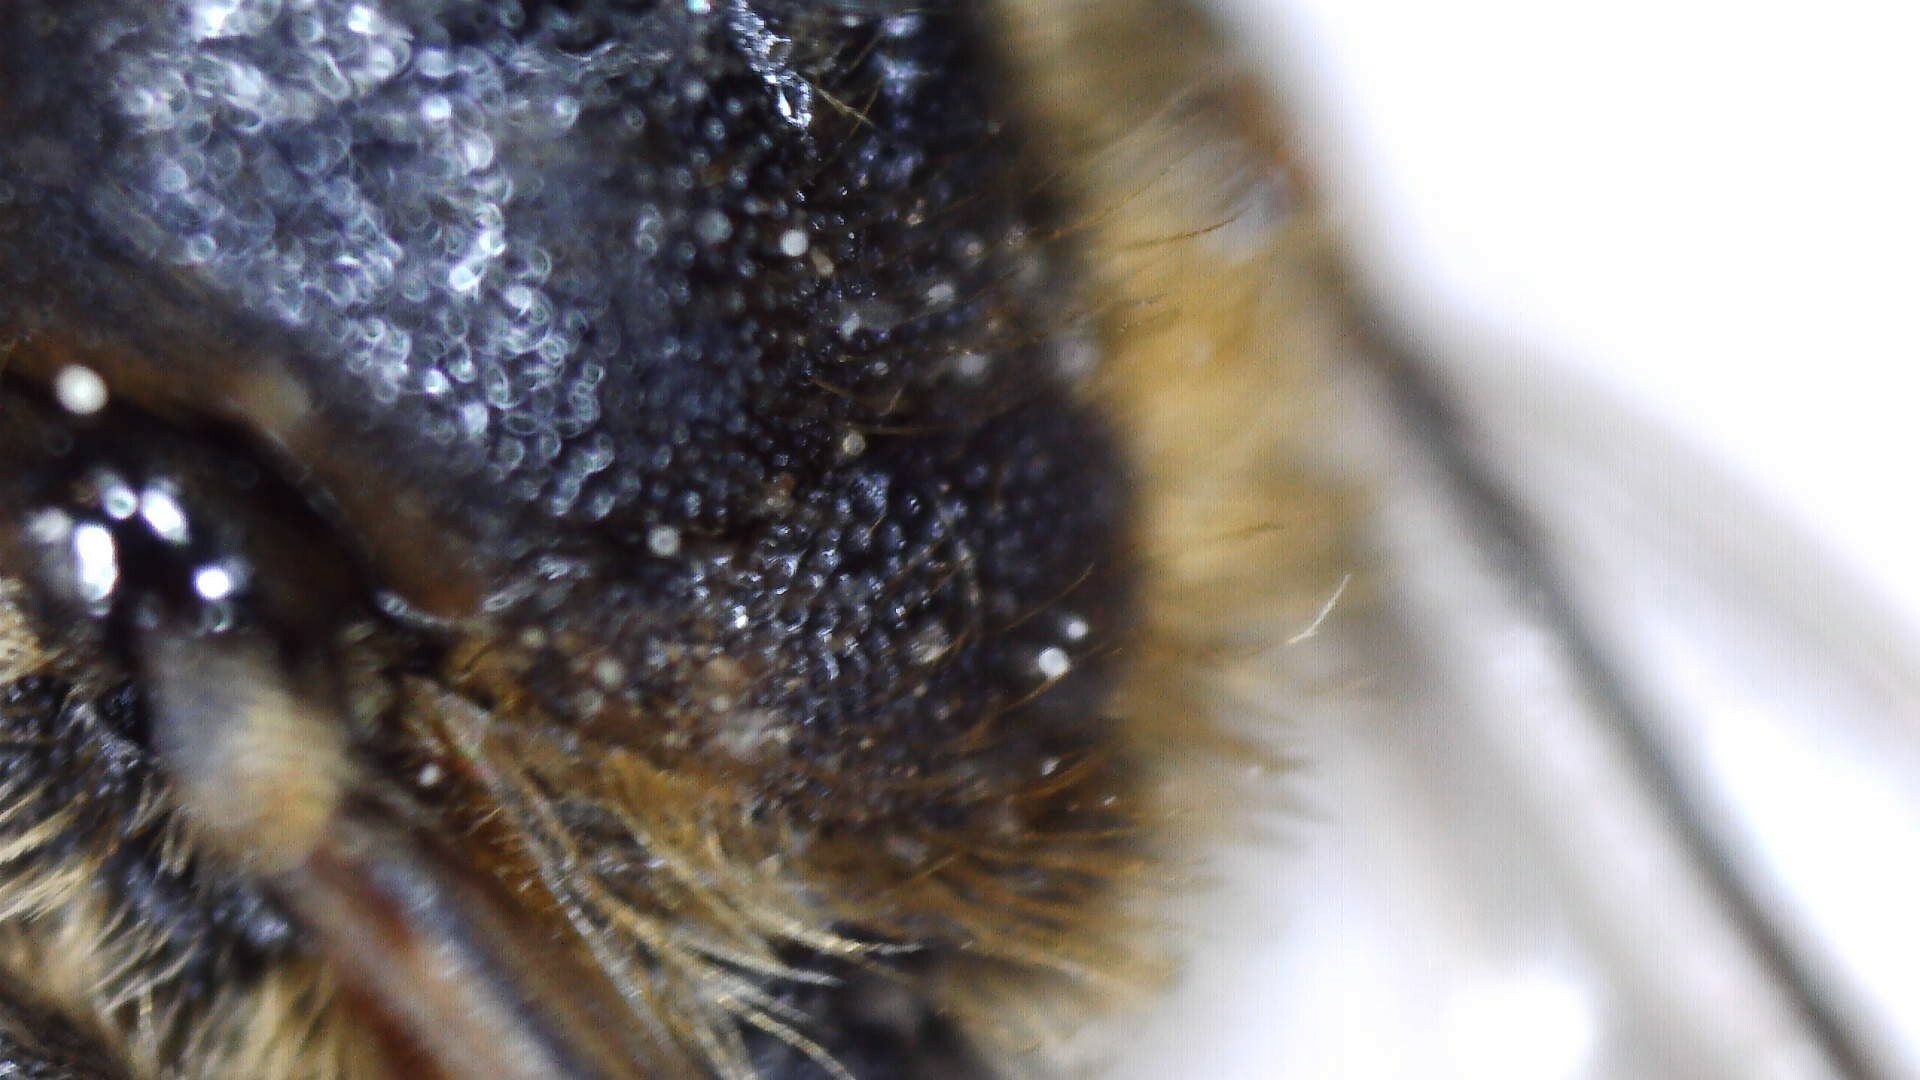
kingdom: Animalia
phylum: Arthropoda
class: Insecta
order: Hymenoptera
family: Megachilidae
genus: Chelostoma
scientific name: Chelostoma rapunculi
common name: Rampion scissor bee
